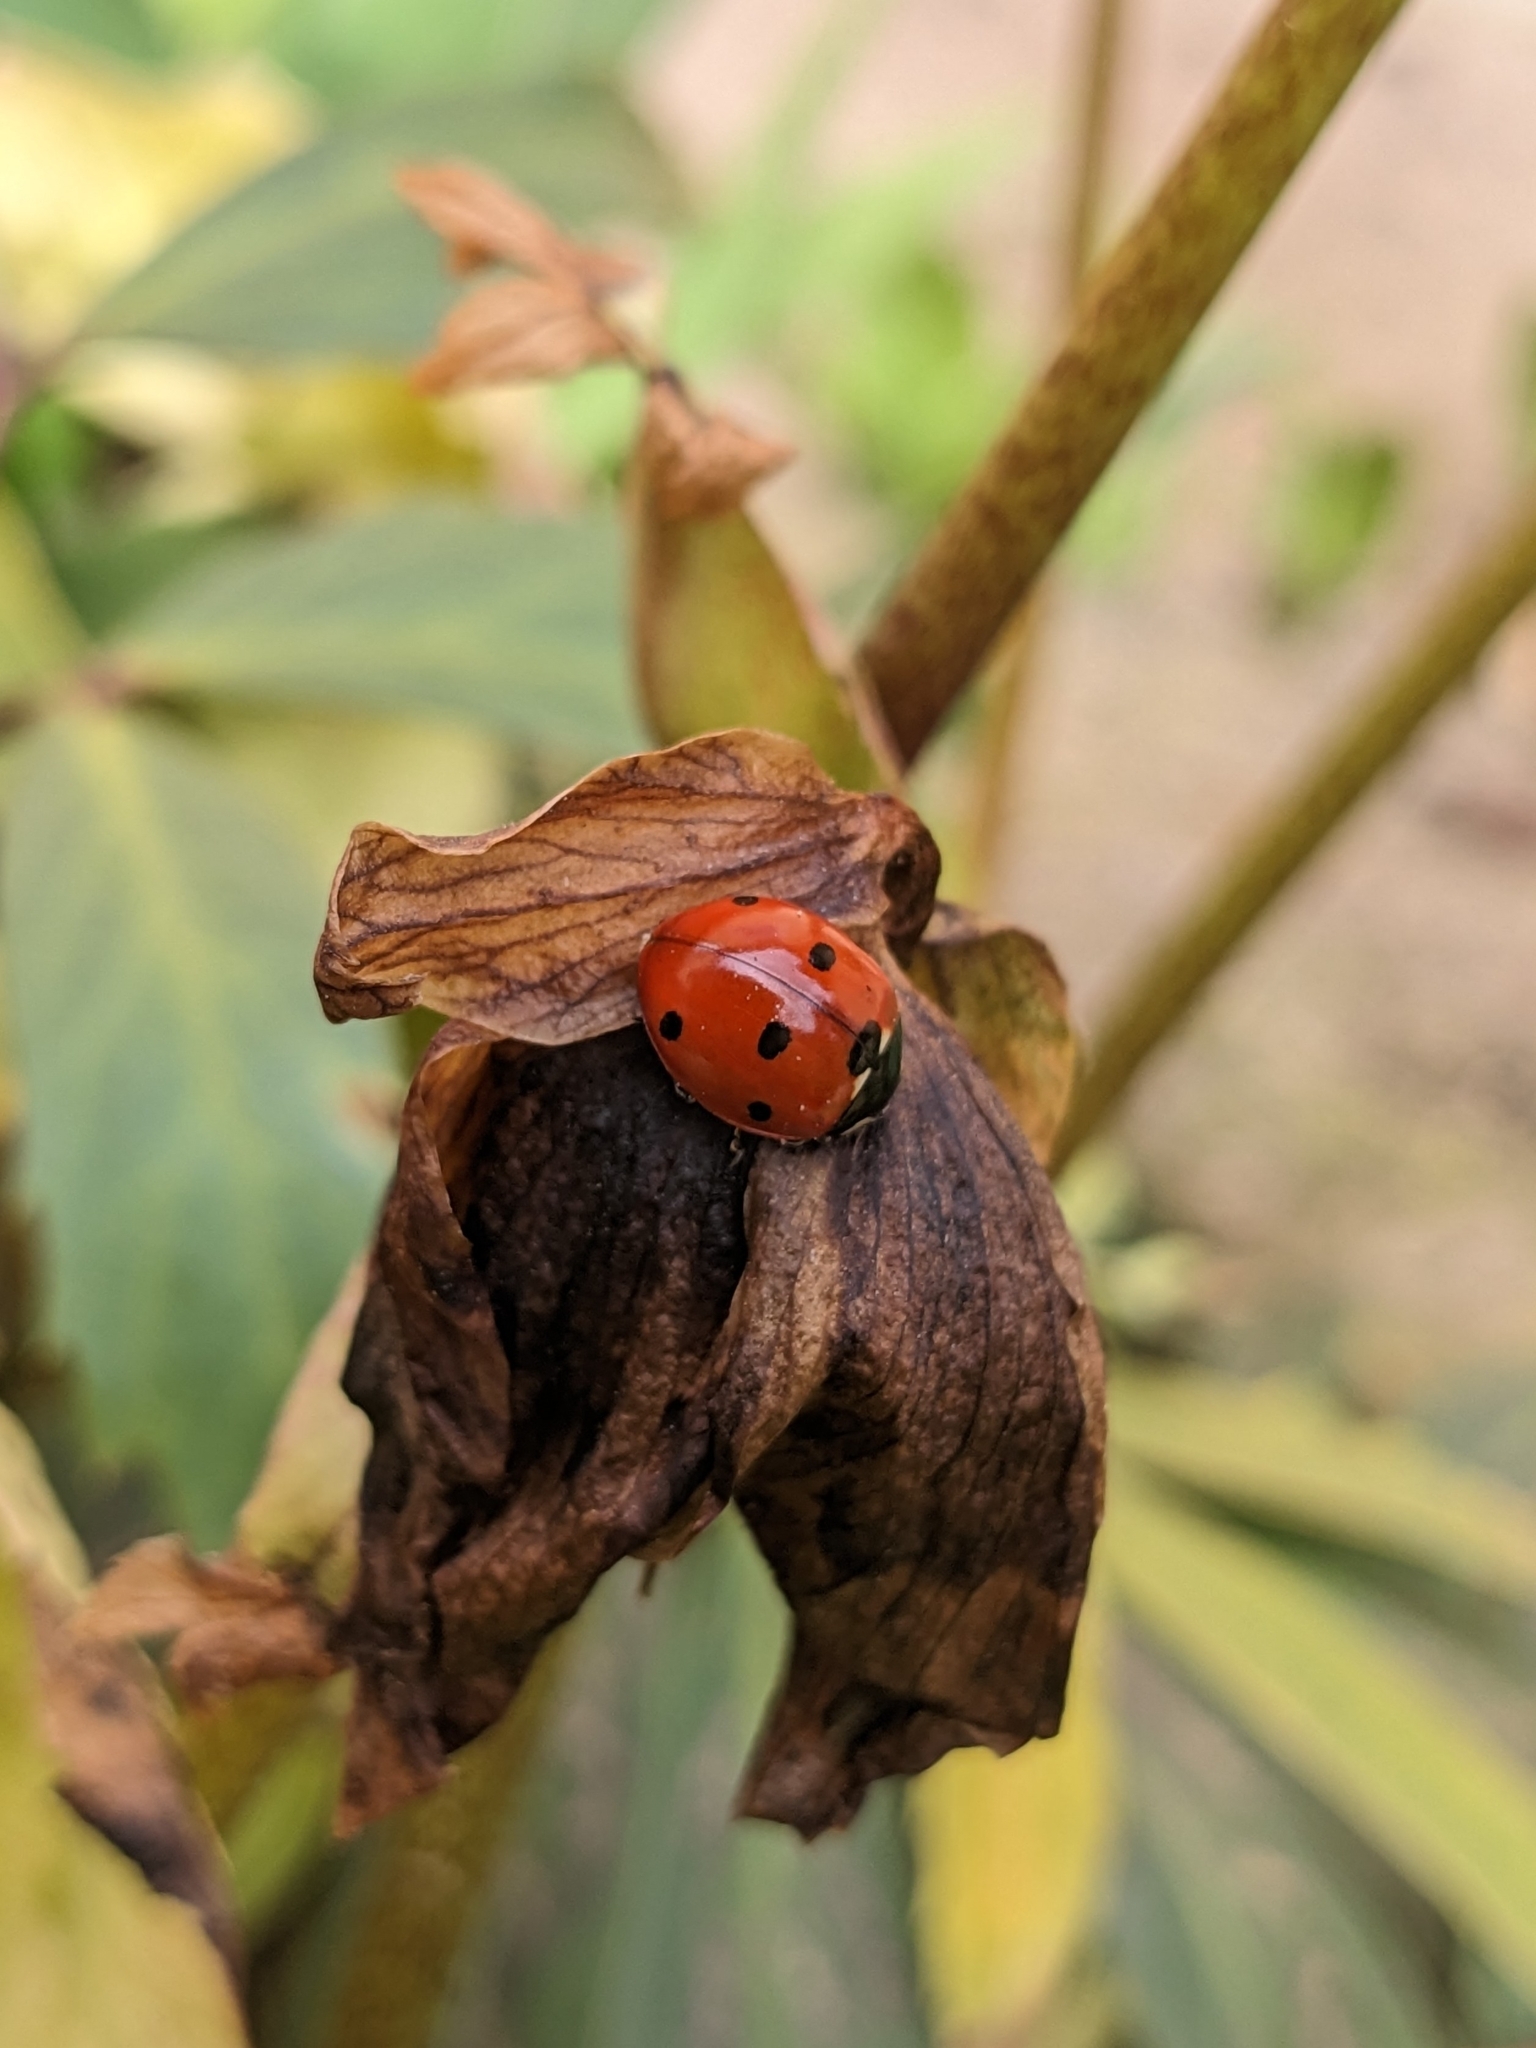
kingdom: Animalia
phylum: Arthropoda
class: Insecta
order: Coleoptera
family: Coccinellidae
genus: Coccinella
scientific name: Coccinella septempunctata
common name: Sevenspotted lady beetle
